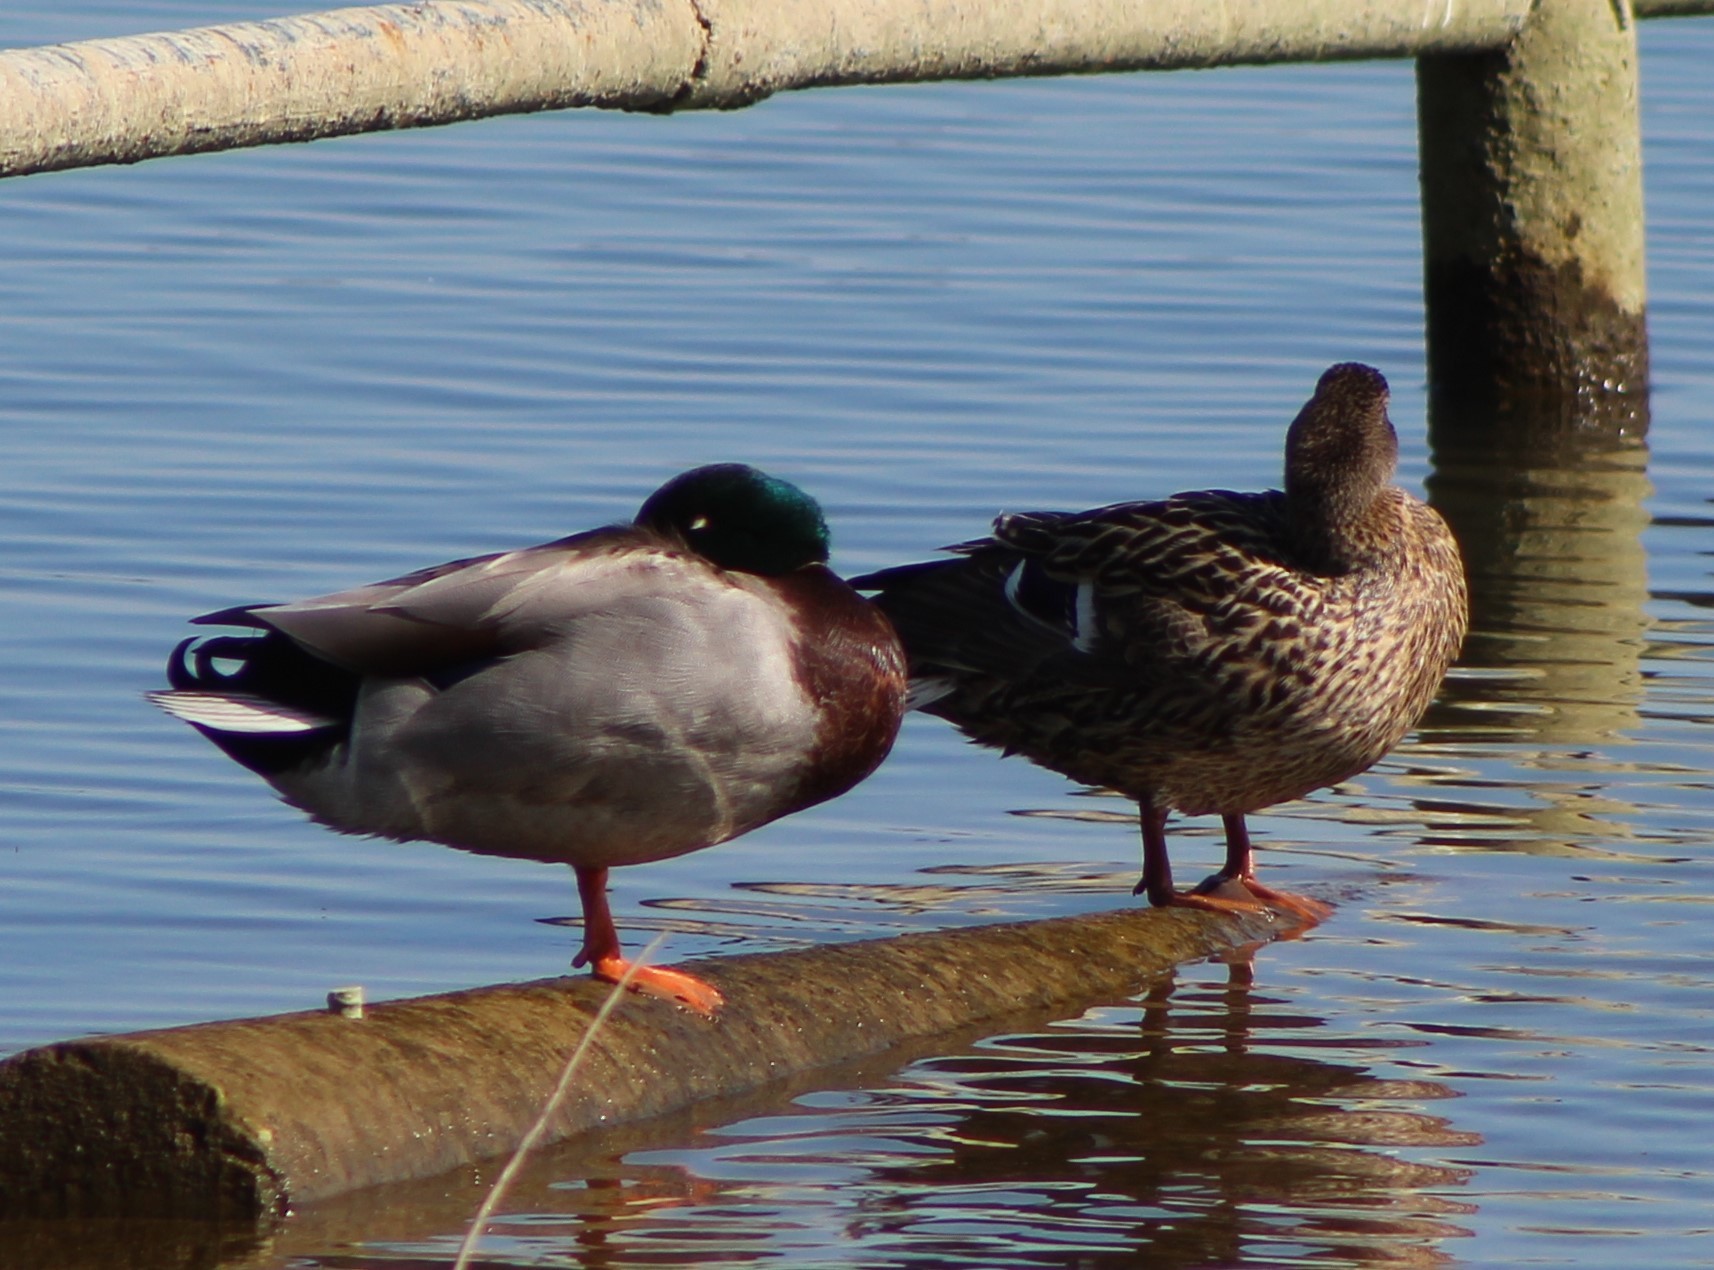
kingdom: Animalia
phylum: Chordata
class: Aves
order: Anseriformes
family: Anatidae
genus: Anas
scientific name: Anas platyrhynchos
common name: Mallard
